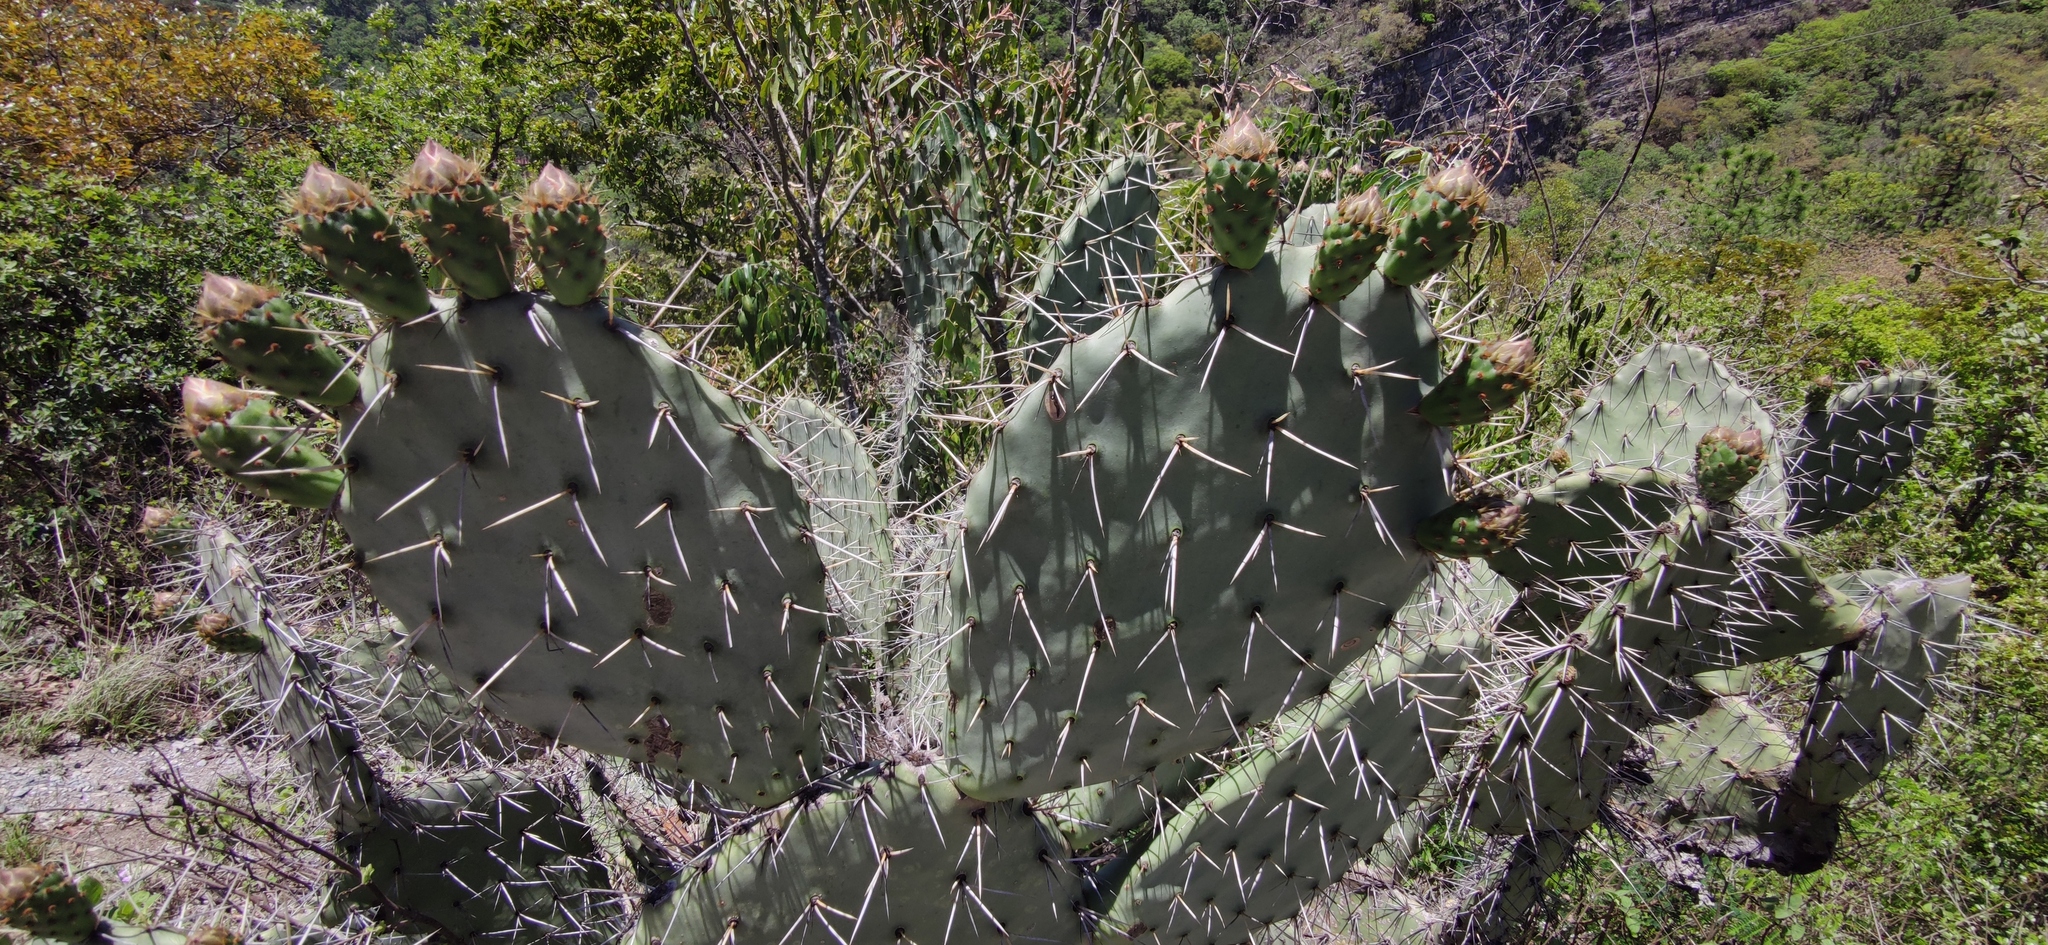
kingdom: Plantae
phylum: Tracheophyta
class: Magnoliopsida
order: Caryophyllales
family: Cactaceae
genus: Opuntia
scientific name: Opuntia robusta
